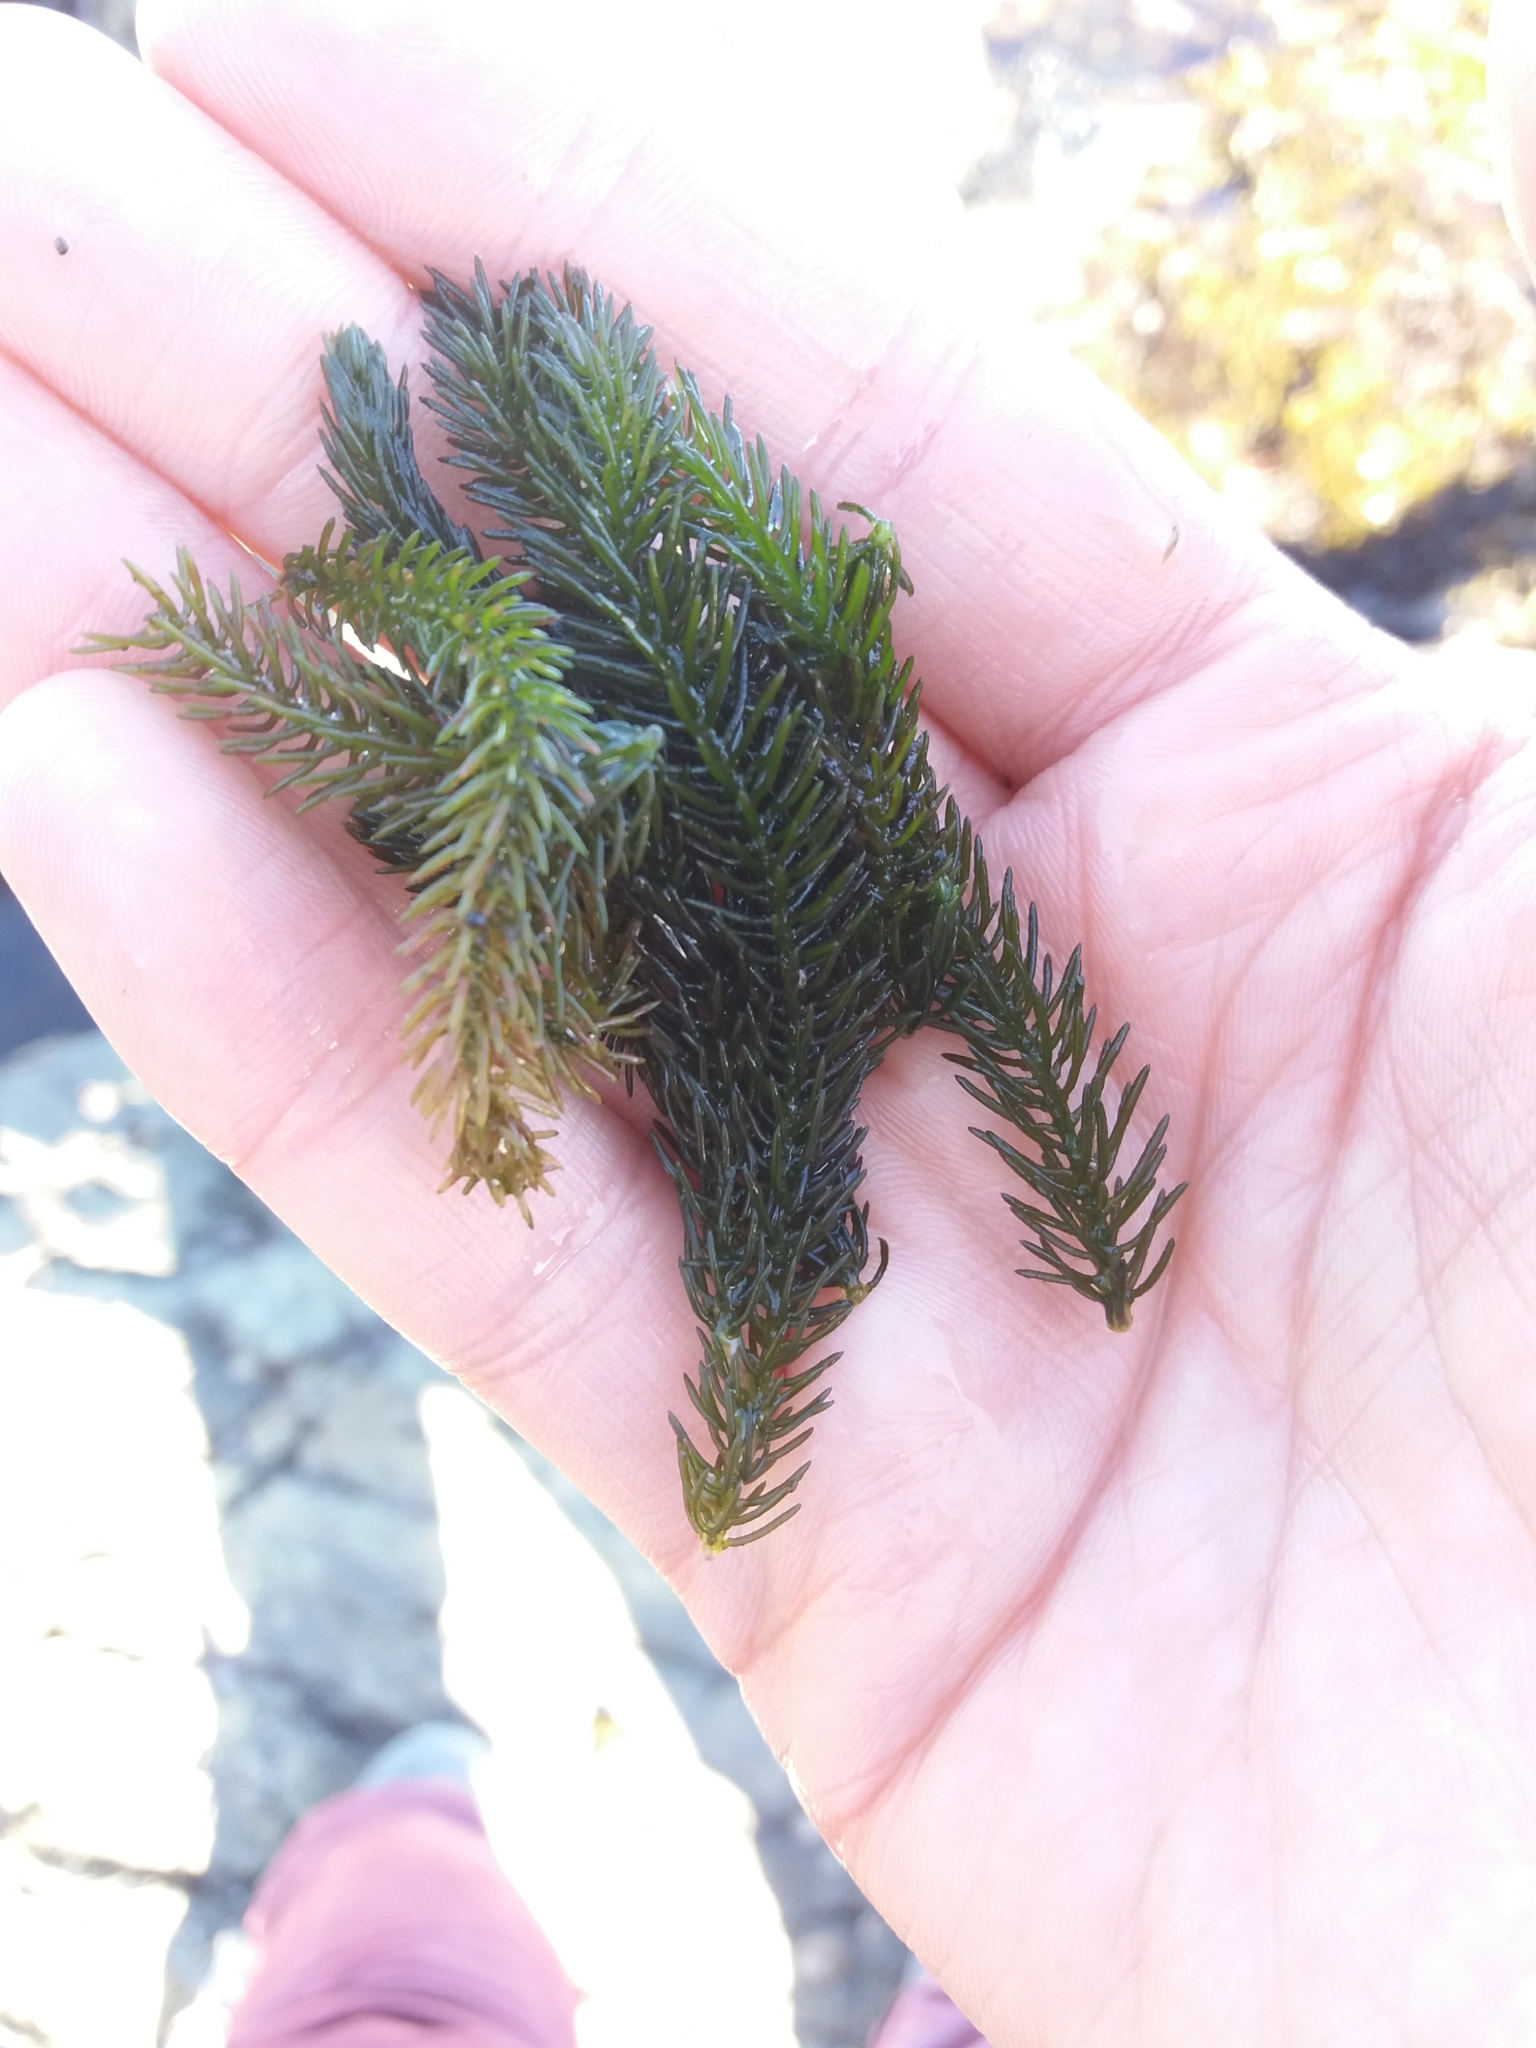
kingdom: Plantae
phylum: Chlorophyta
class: Ulvophyceae
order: Bryopsidales
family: Caulerpaceae
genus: Caulerpa
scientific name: Caulerpa brownii
